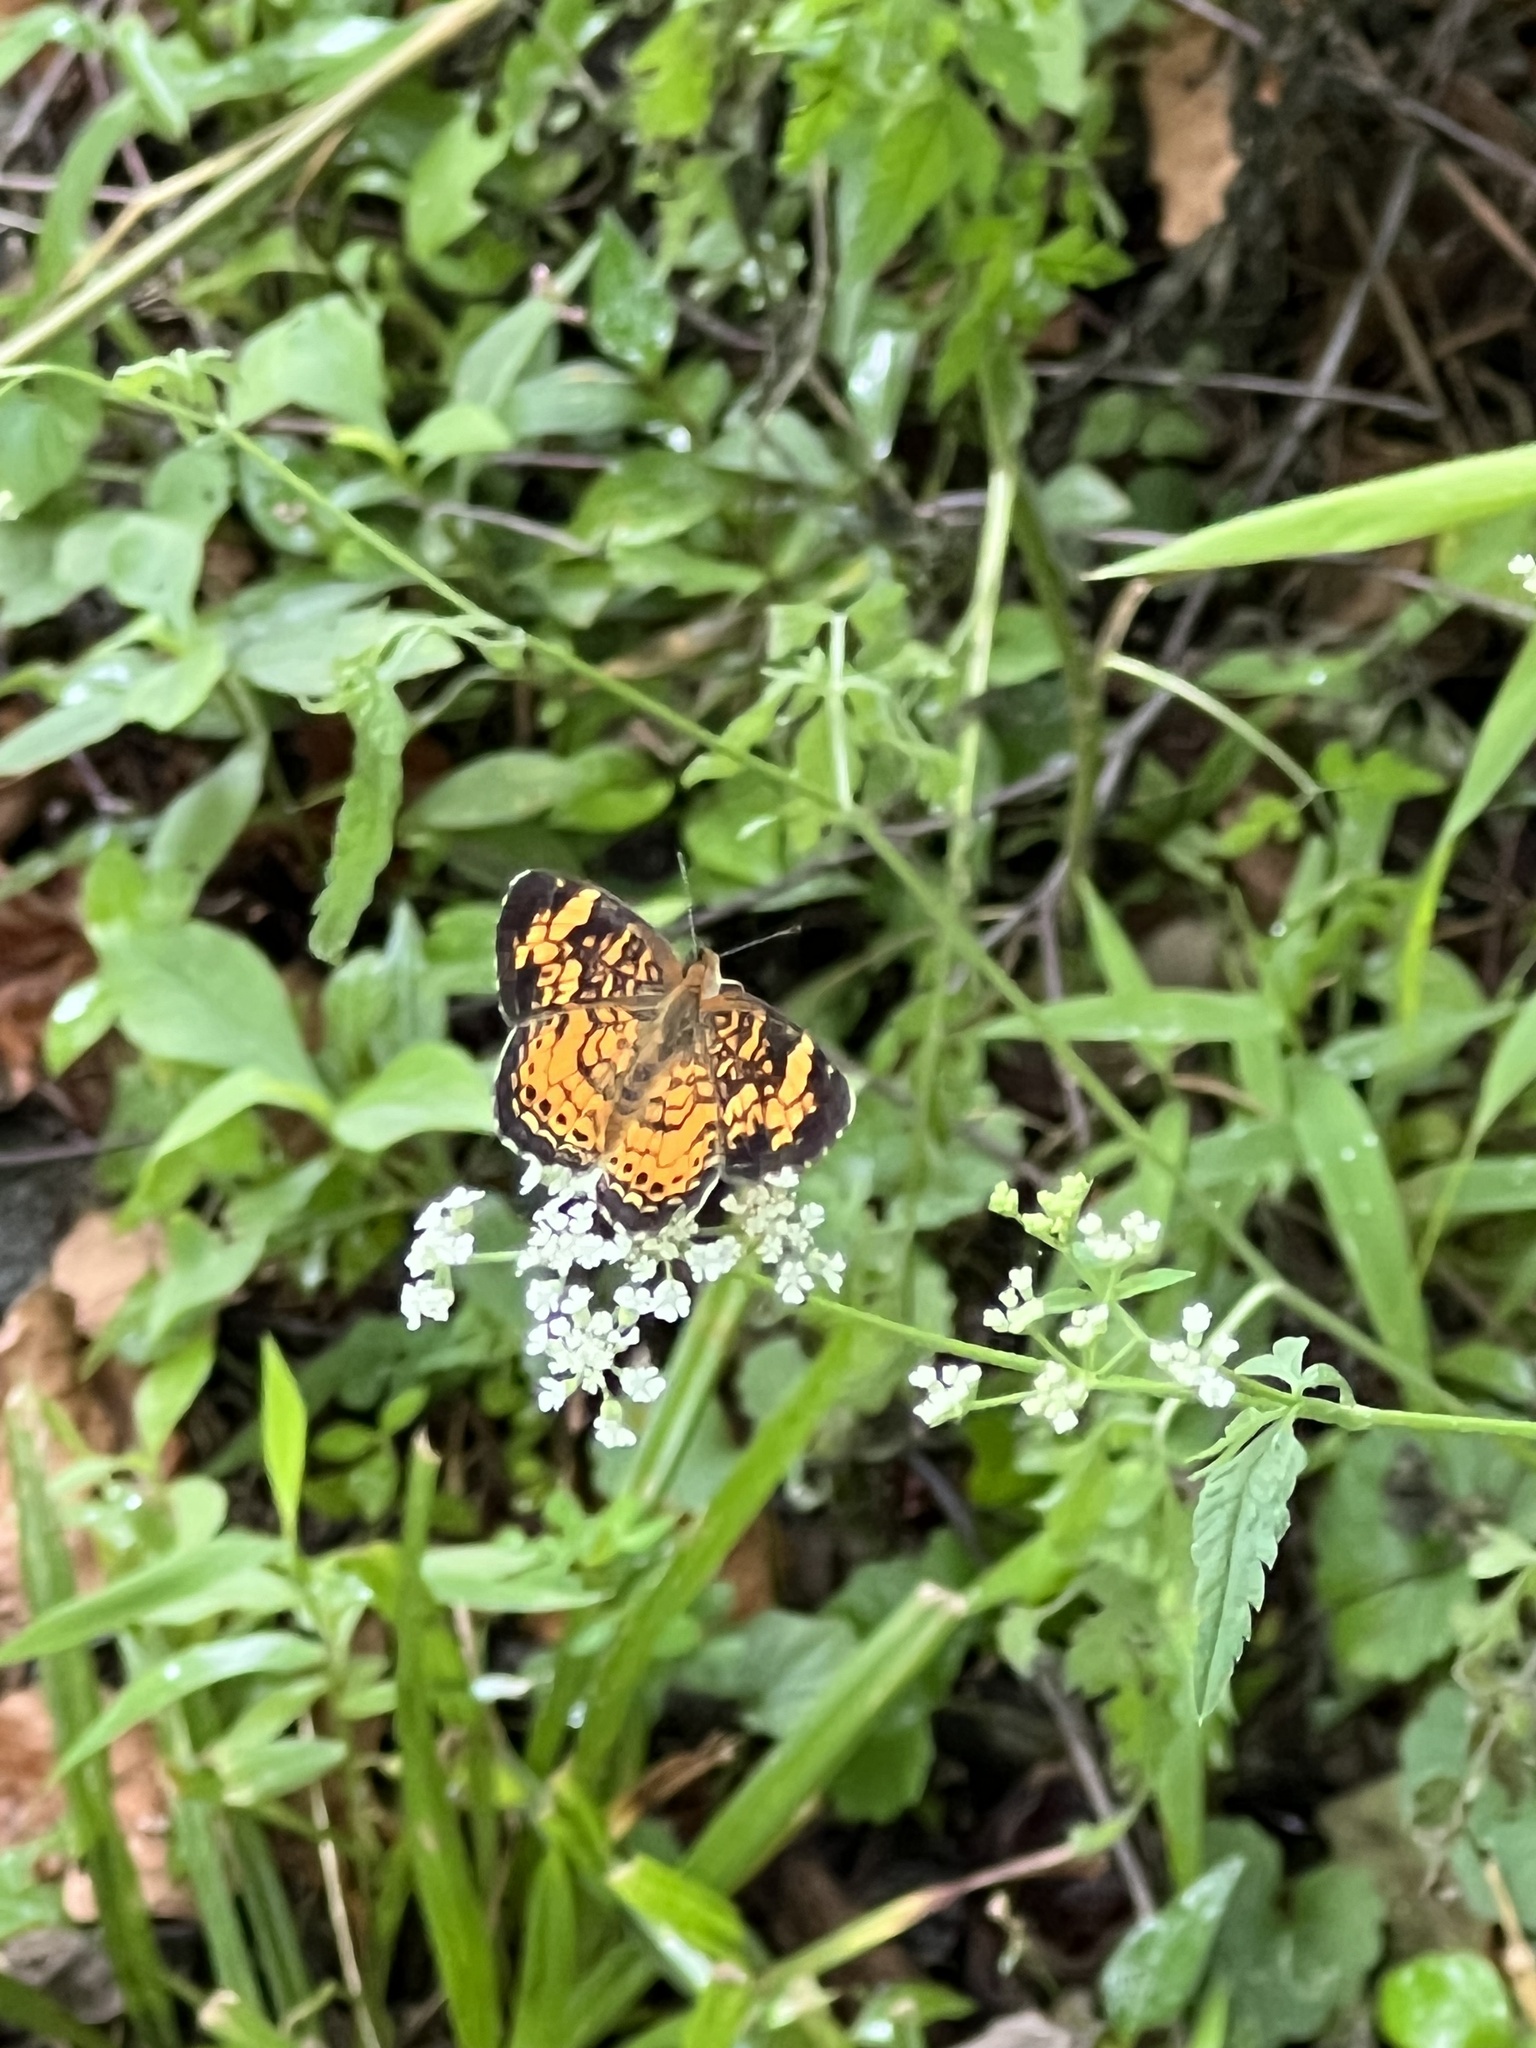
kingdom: Animalia
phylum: Arthropoda
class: Insecta
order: Lepidoptera
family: Nymphalidae
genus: Phyciodes
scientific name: Phyciodes tharos
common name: Pearl crescent
